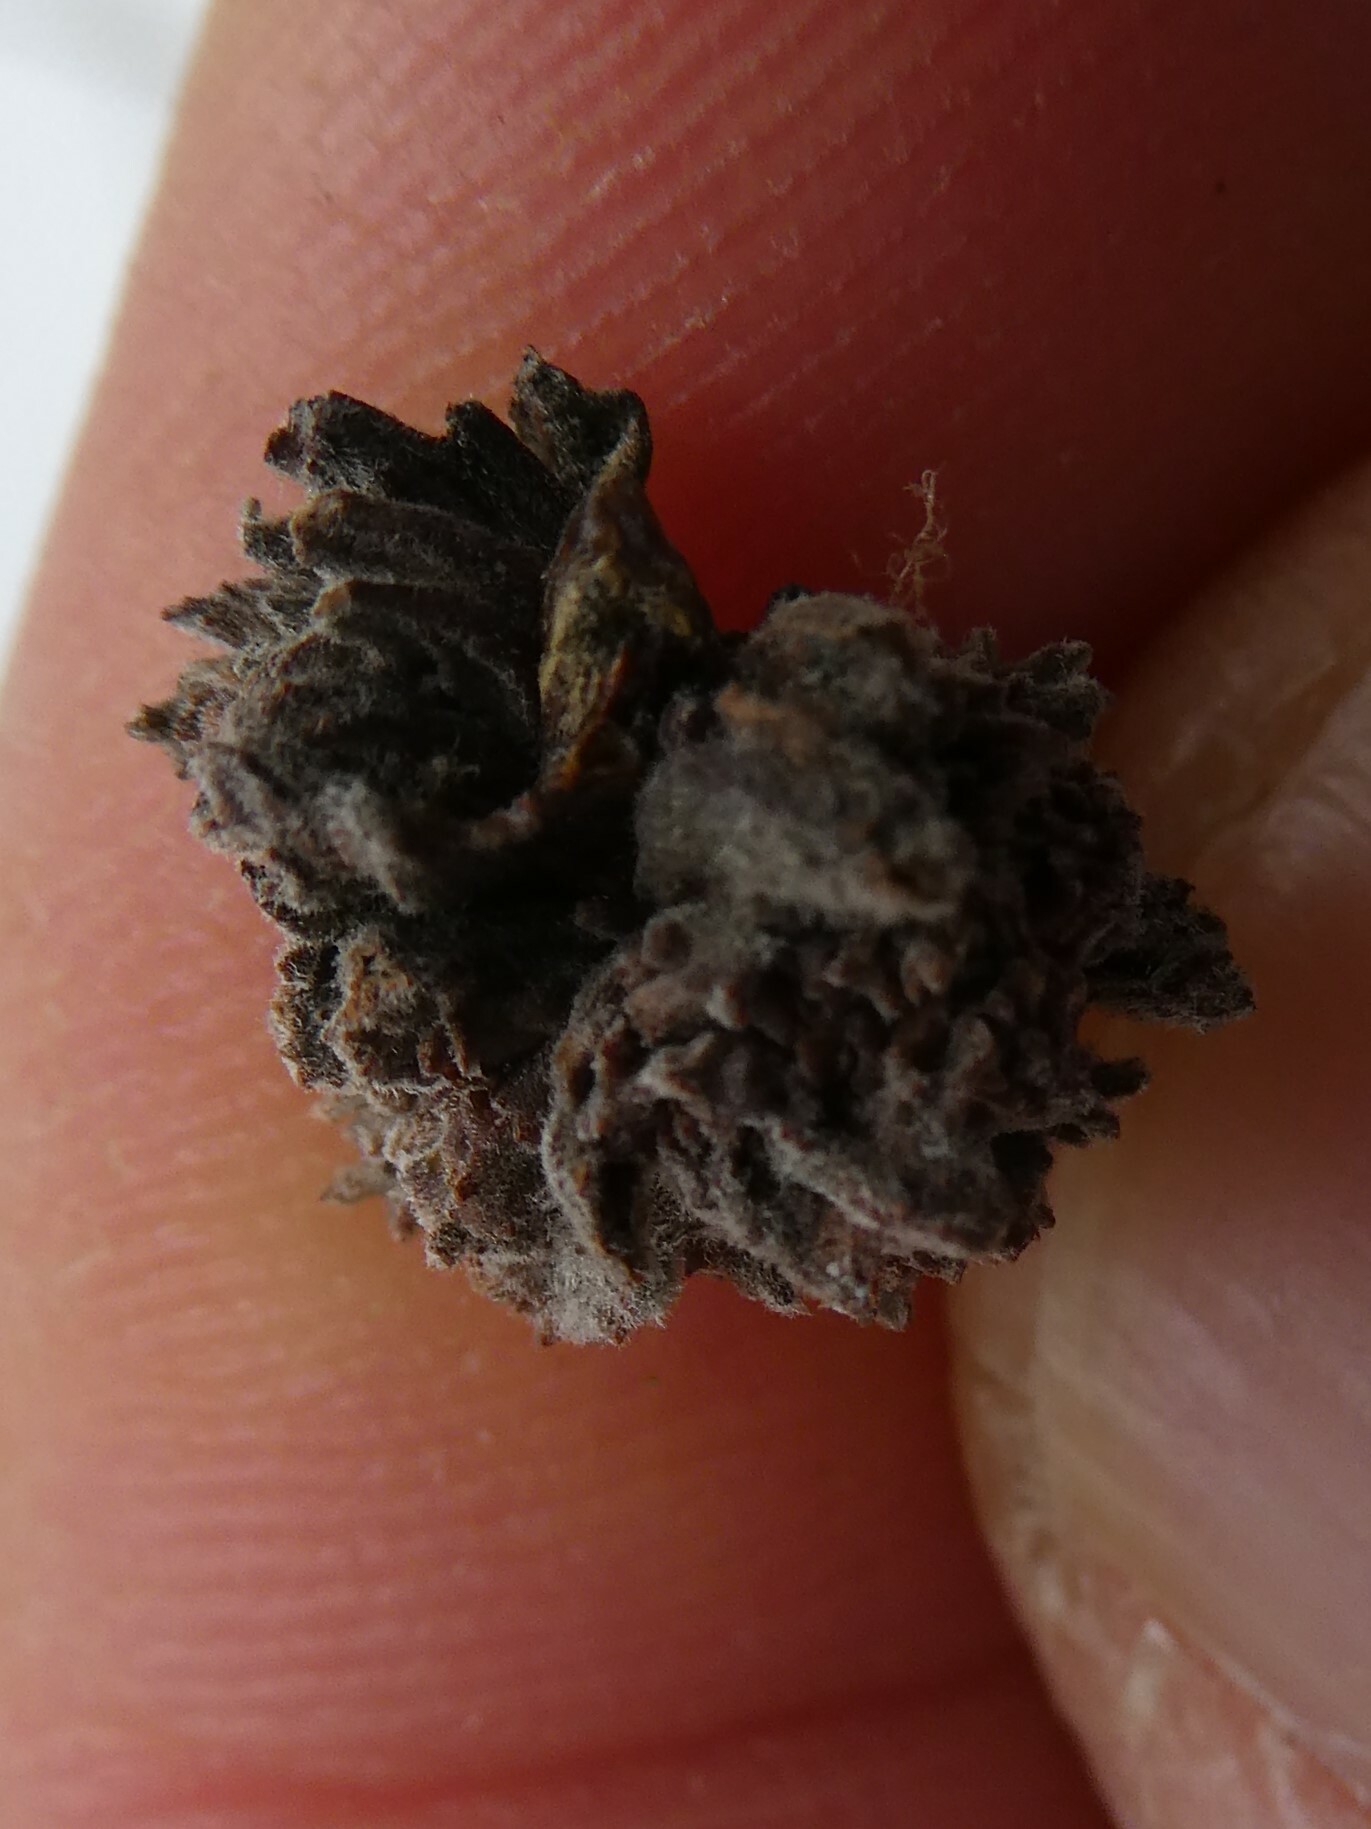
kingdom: Animalia
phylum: Arthropoda
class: Arachnida
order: Trombidiformes
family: Eriophyidae
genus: Aceria
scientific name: Aceria
